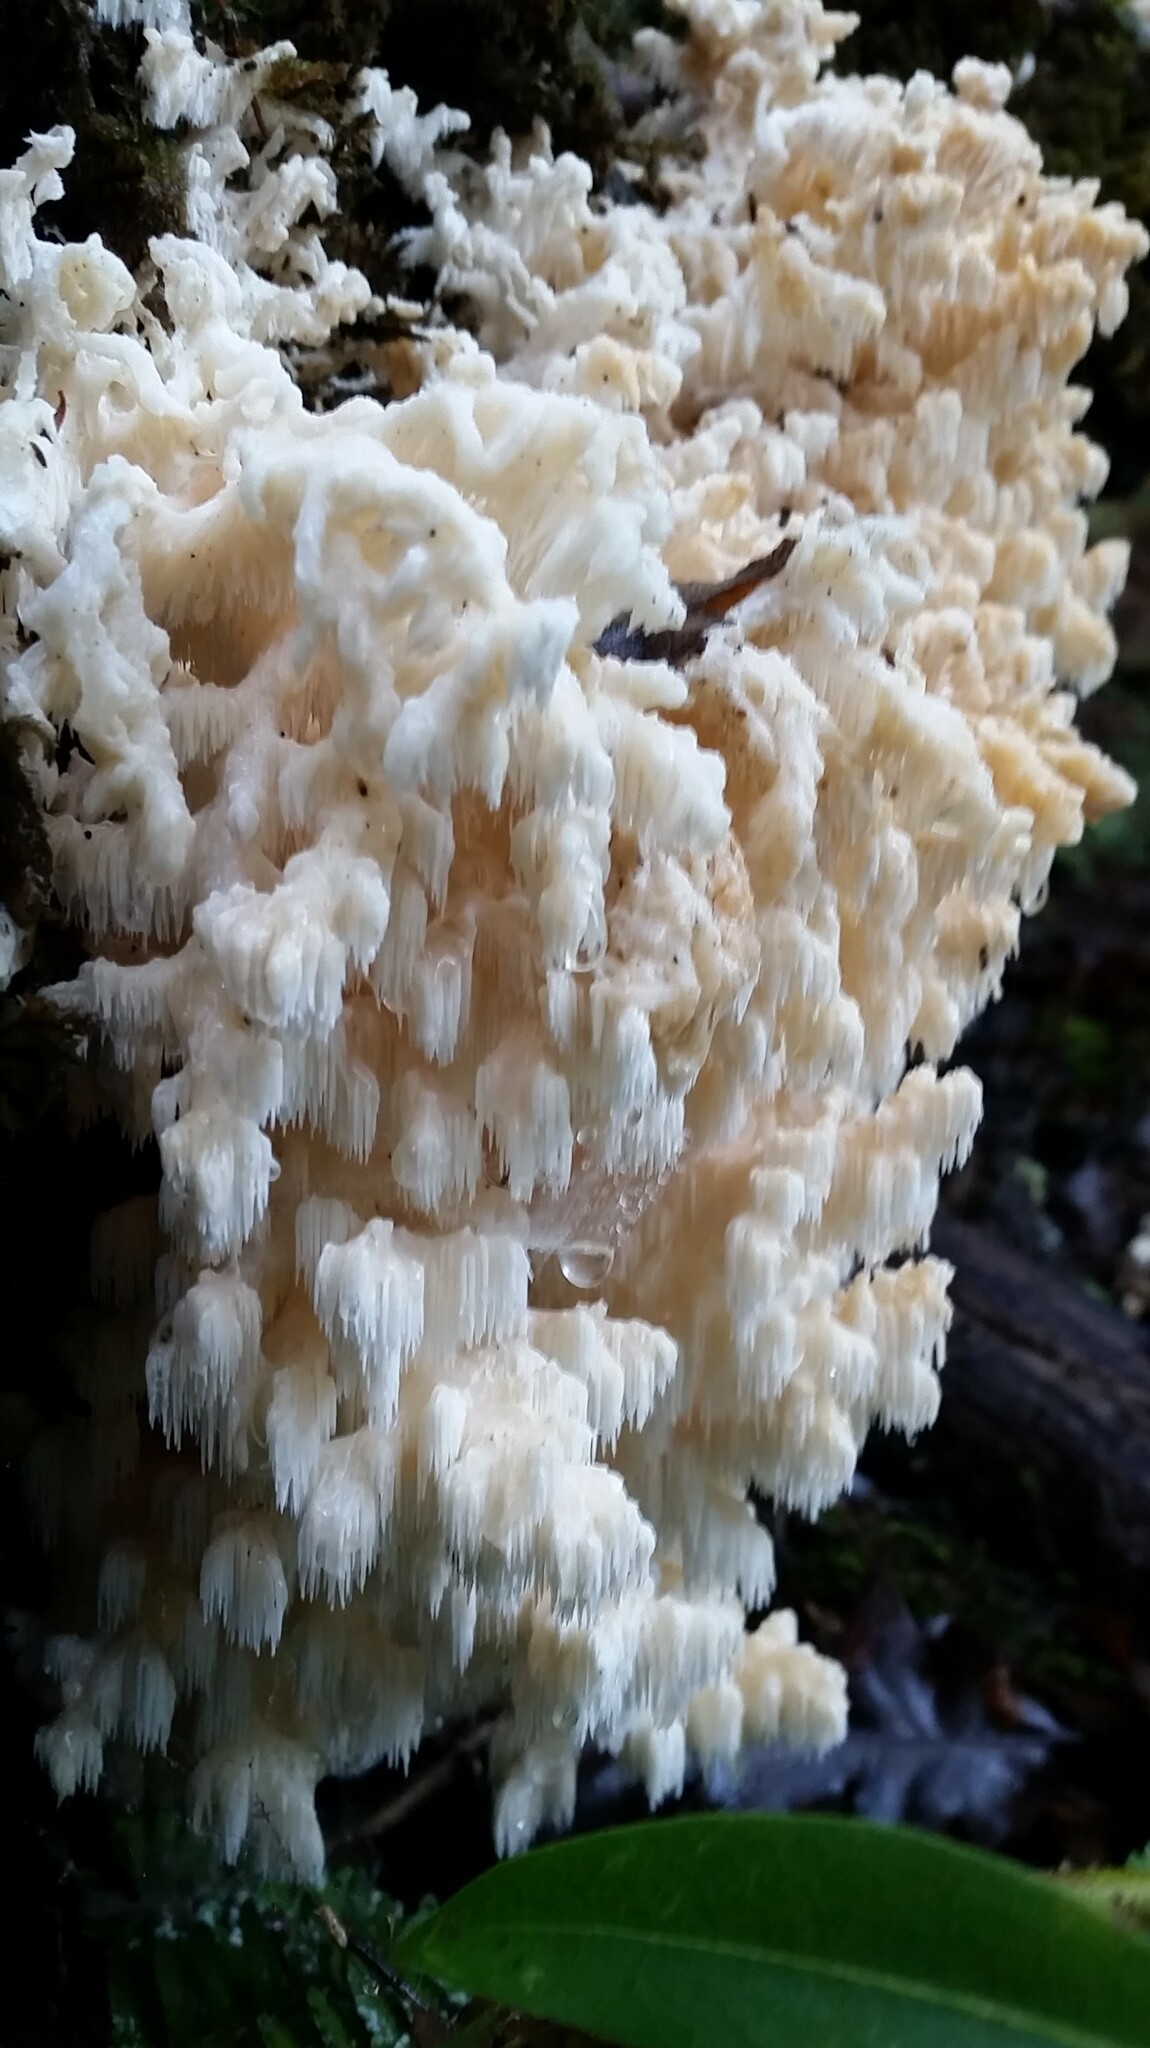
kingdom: Fungi
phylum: Basidiomycota
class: Agaricomycetes
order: Russulales
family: Hericiaceae
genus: Hericium
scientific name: Hericium coralloides
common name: Coral tooth
